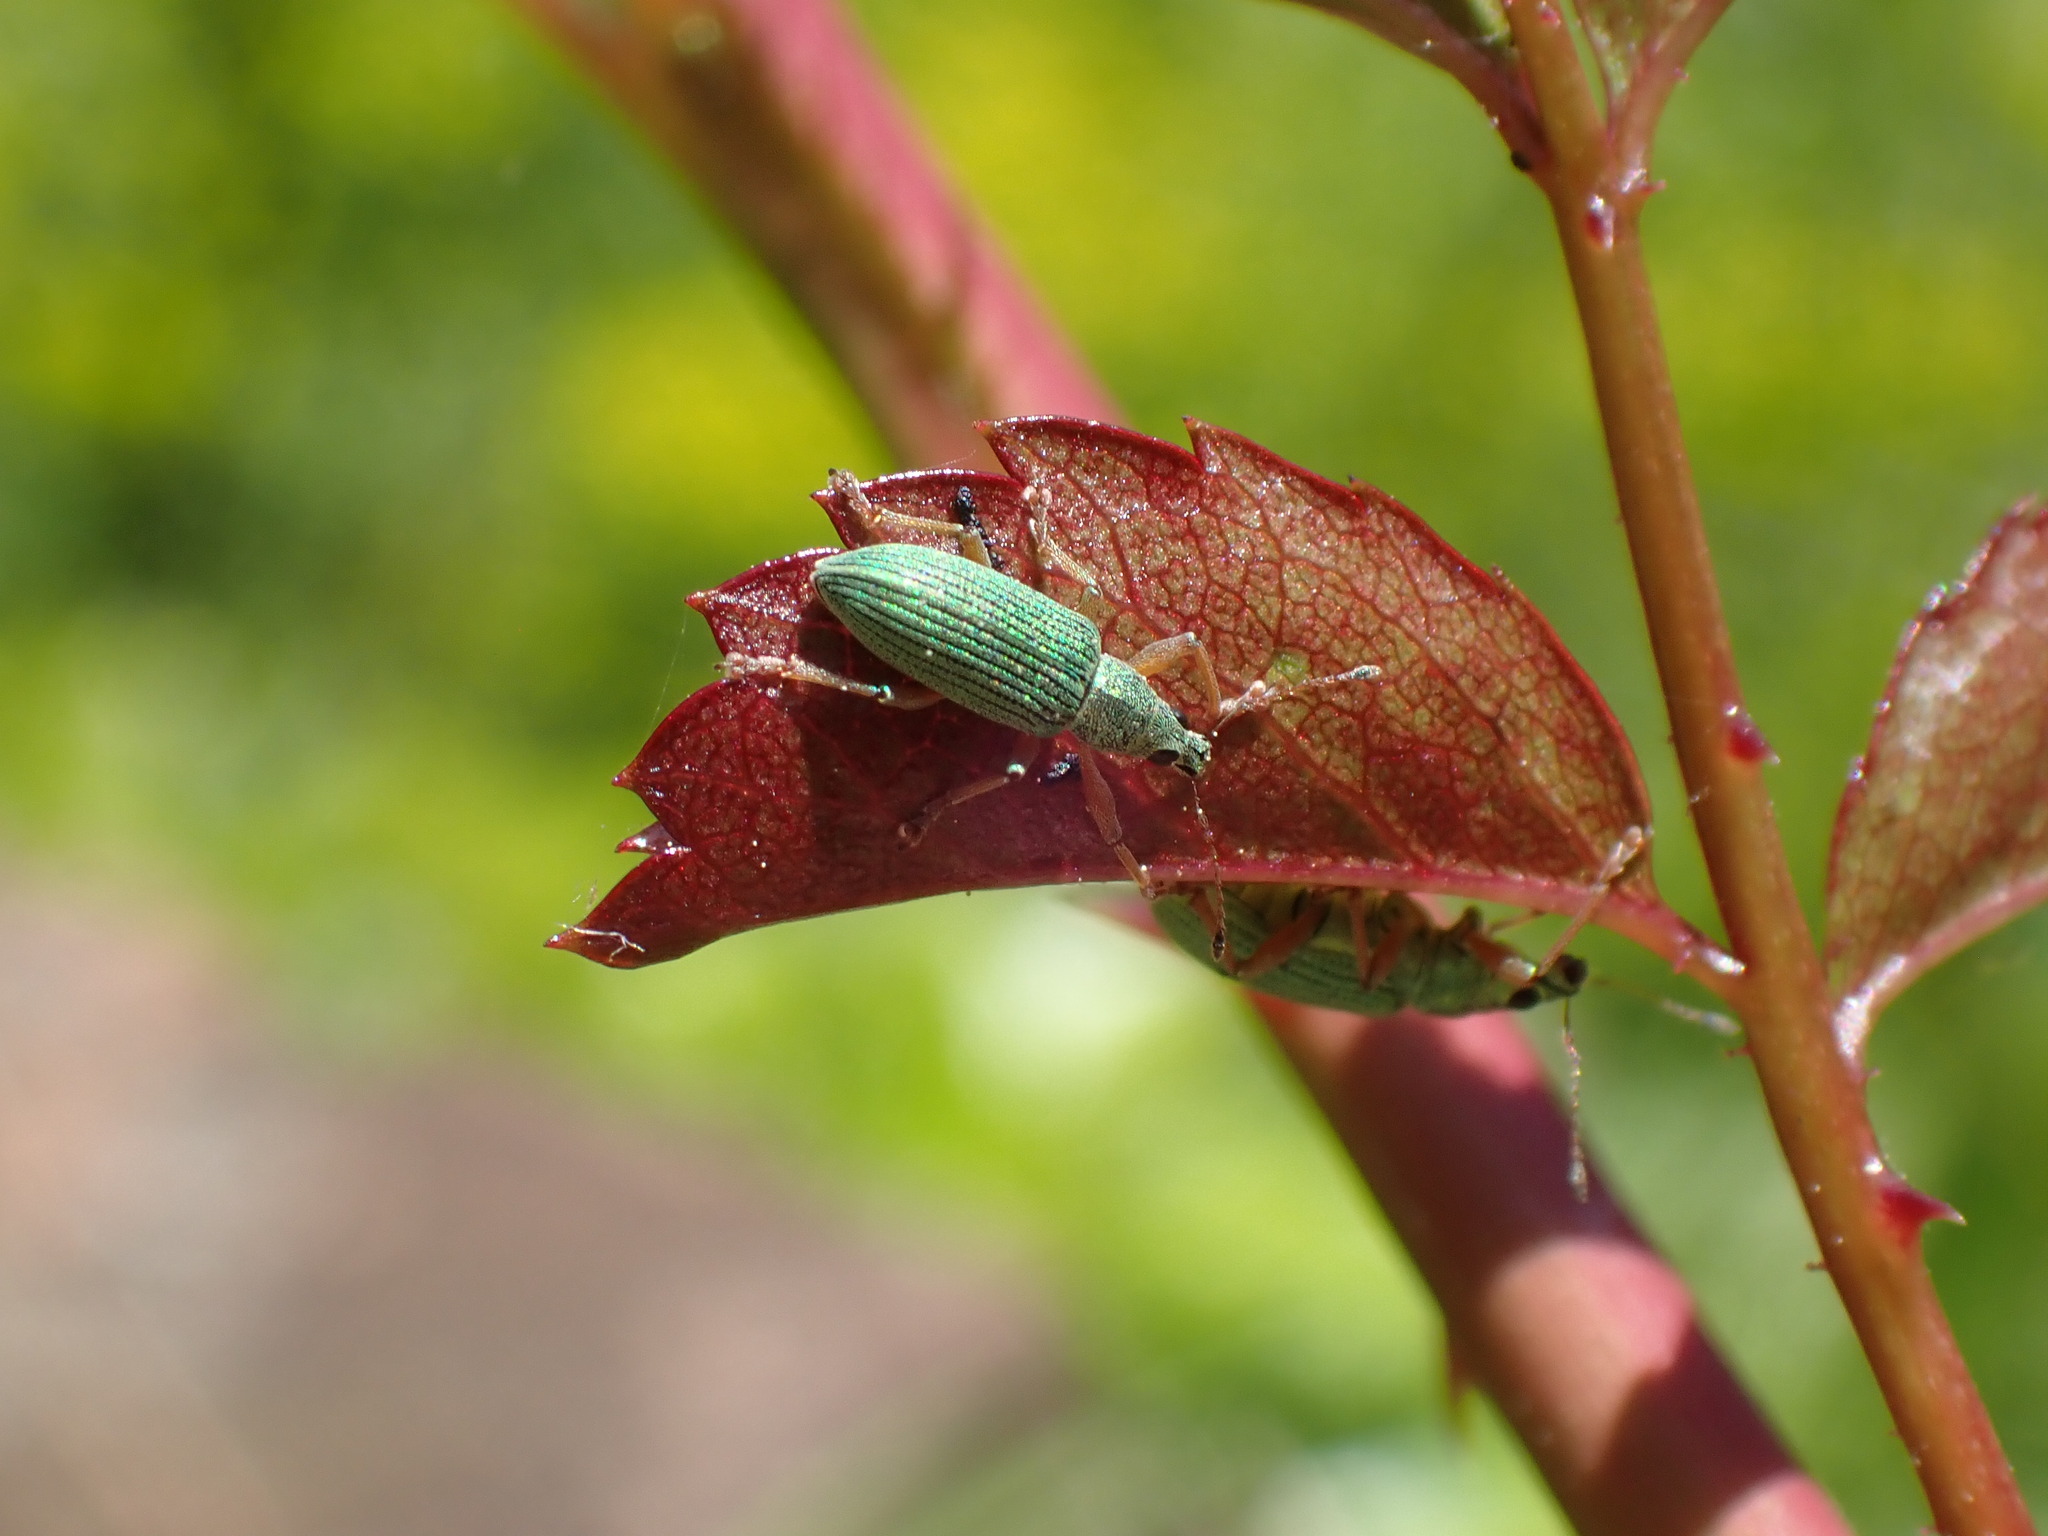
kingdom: Animalia
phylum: Arthropoda
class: Insecta
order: Coleoptera
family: Curculionidae
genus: Polydrusus
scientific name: Polydrusus formosus
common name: Weevil
